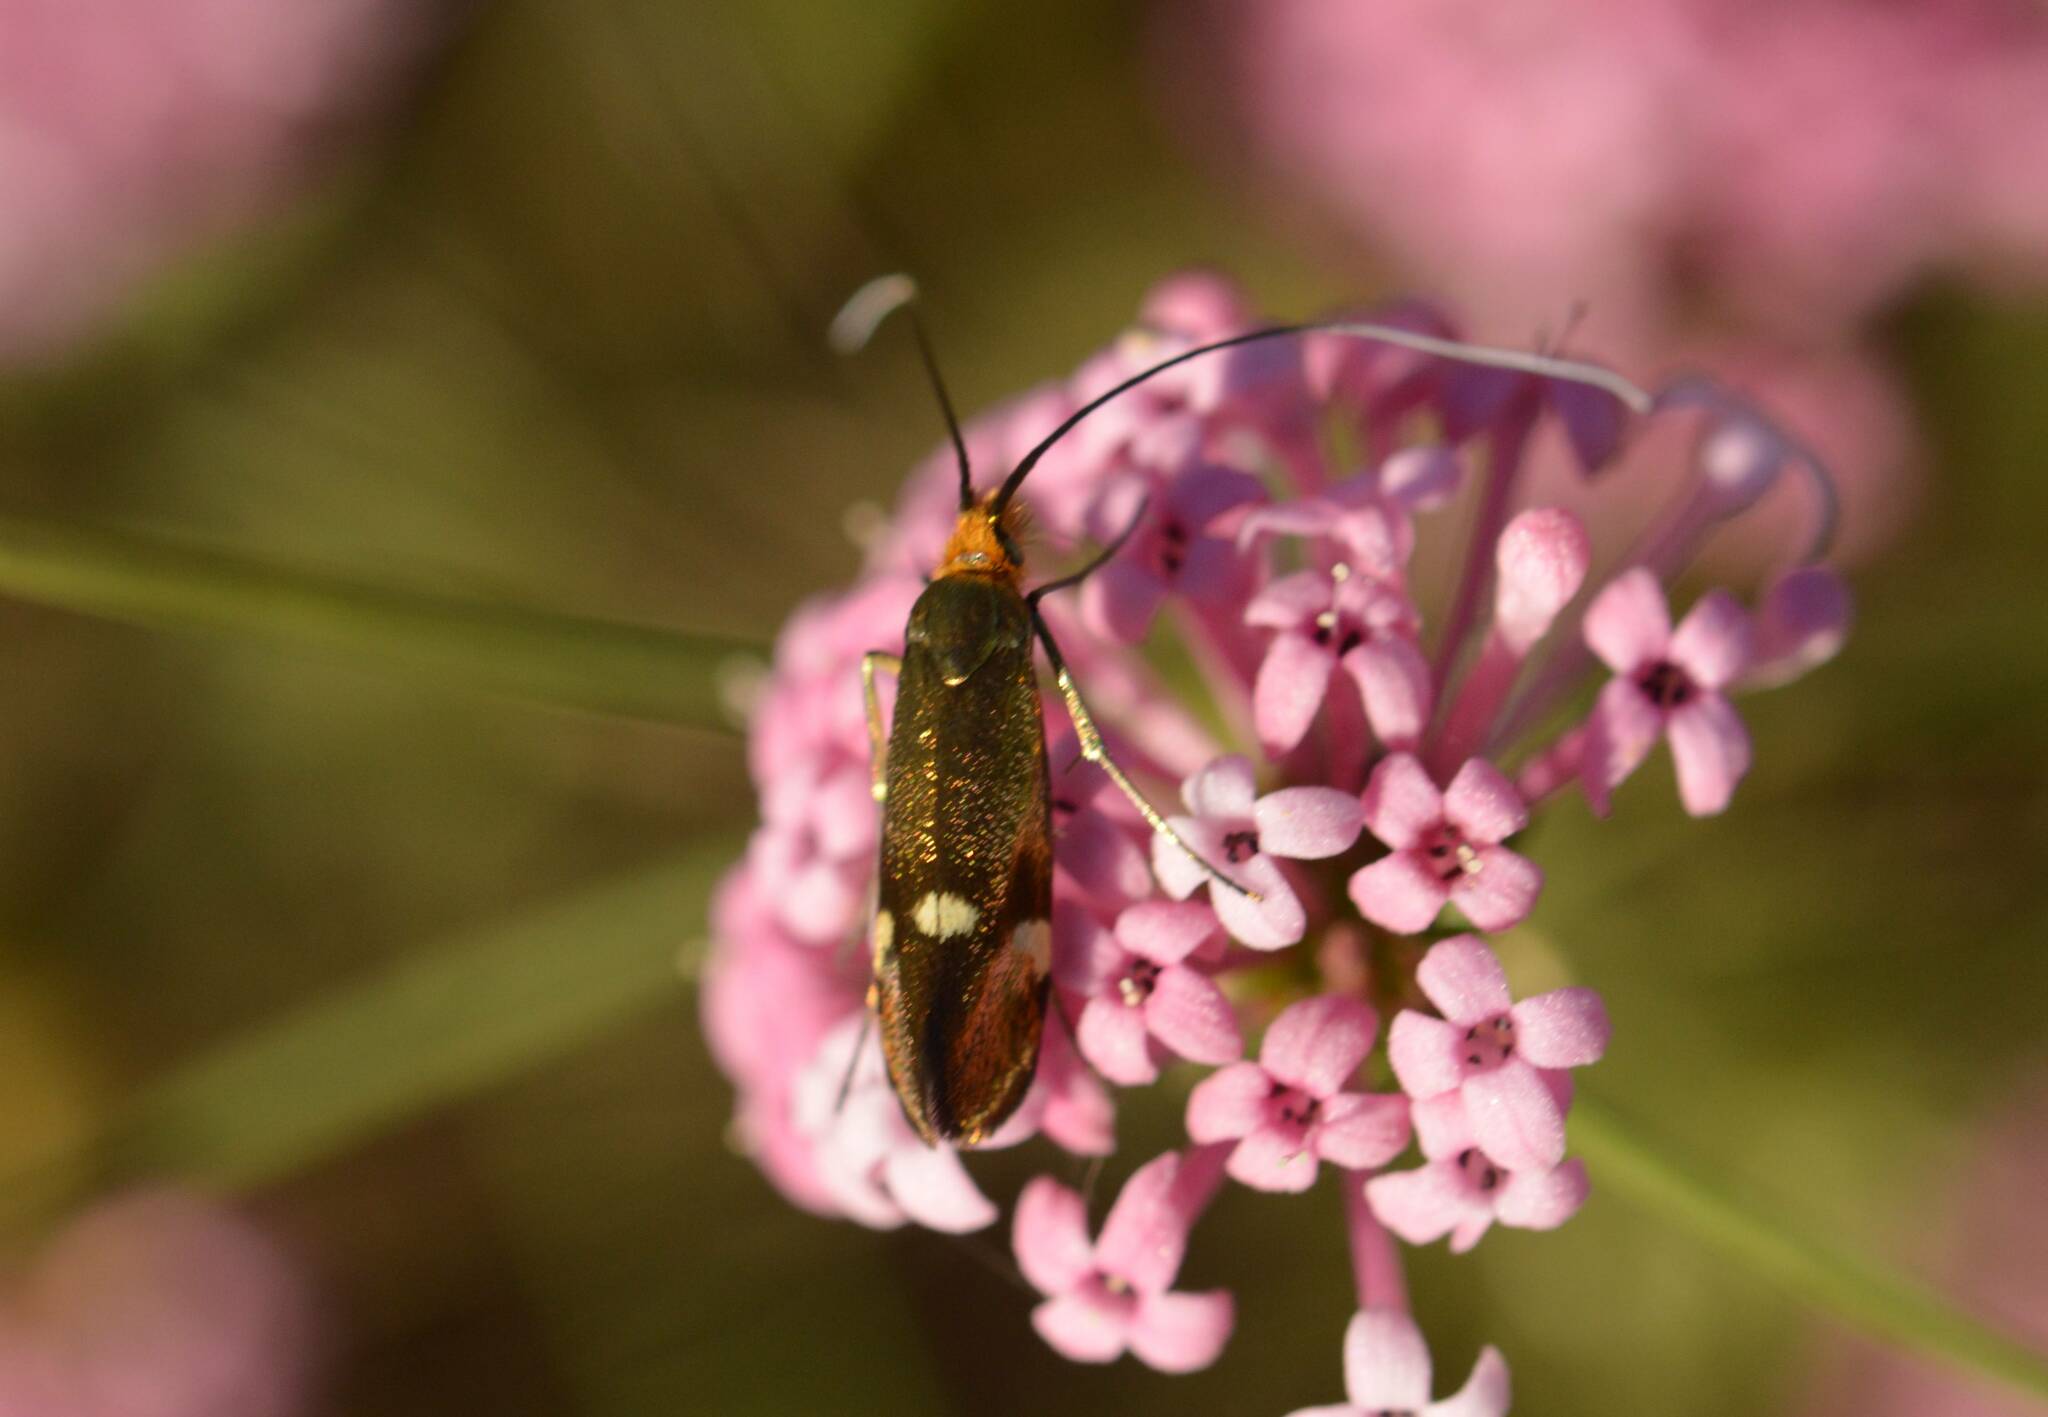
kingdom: Animalia
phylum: Arthropoda
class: Insecta
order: Lepidoptera
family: Adelidae
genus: Nemophora
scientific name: Nemophora raddaella
